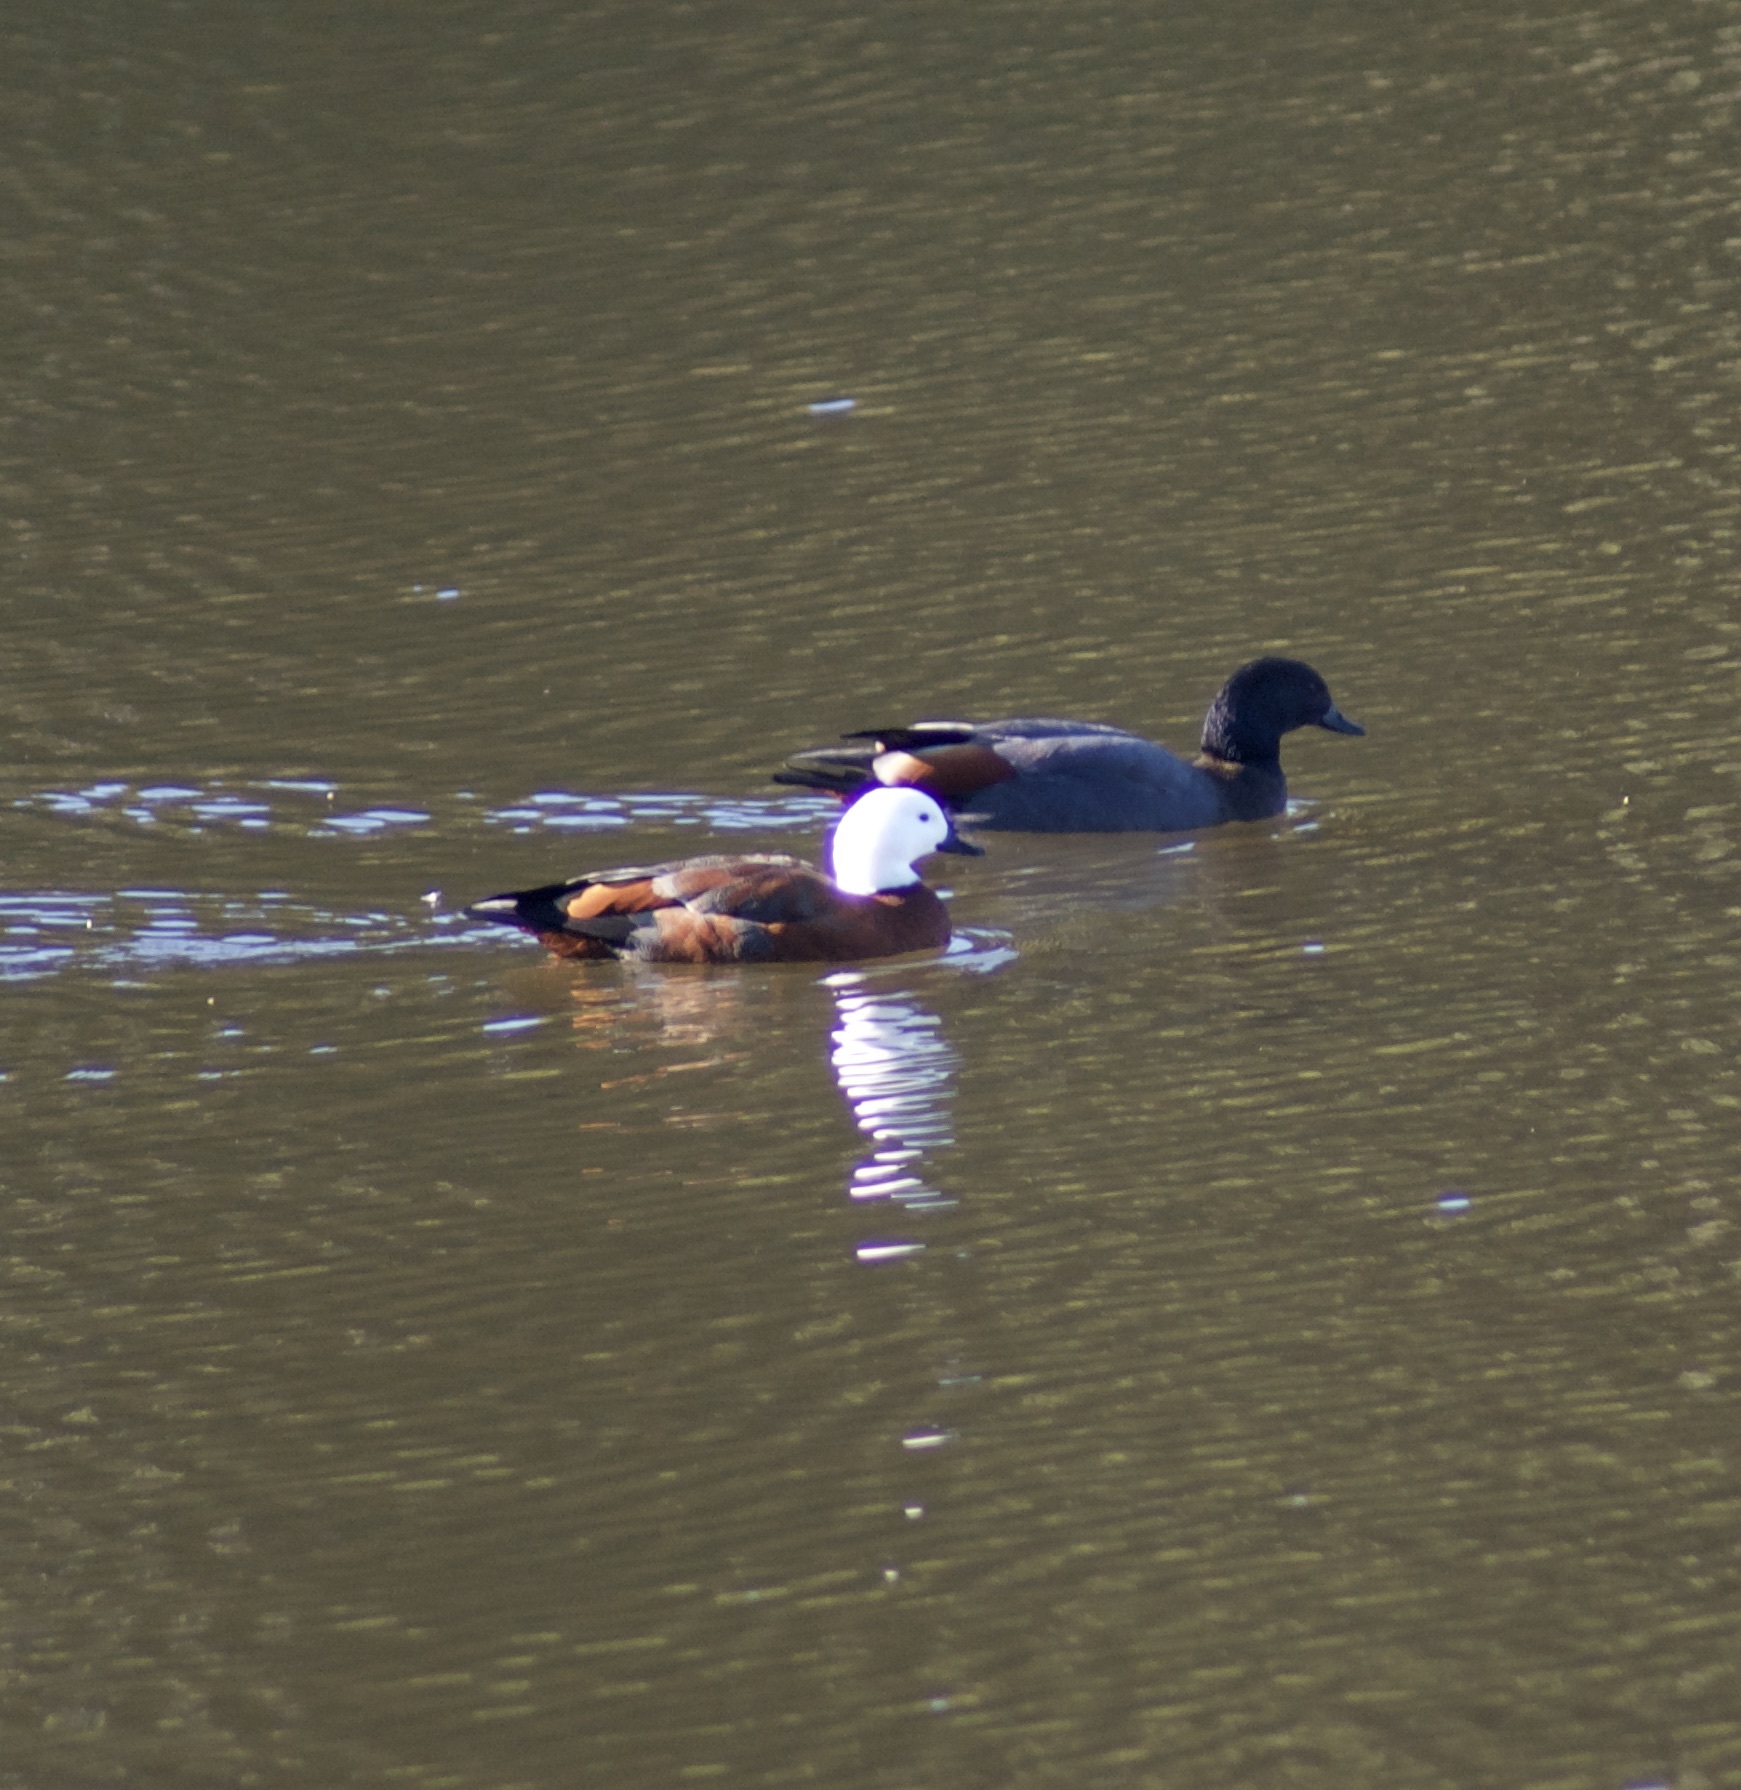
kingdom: Animalia
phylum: Chordata
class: Aves
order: Anseriformes
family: Anatidae
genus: Tadorna
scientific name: Tadorna variegata
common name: Paradise shelduck
